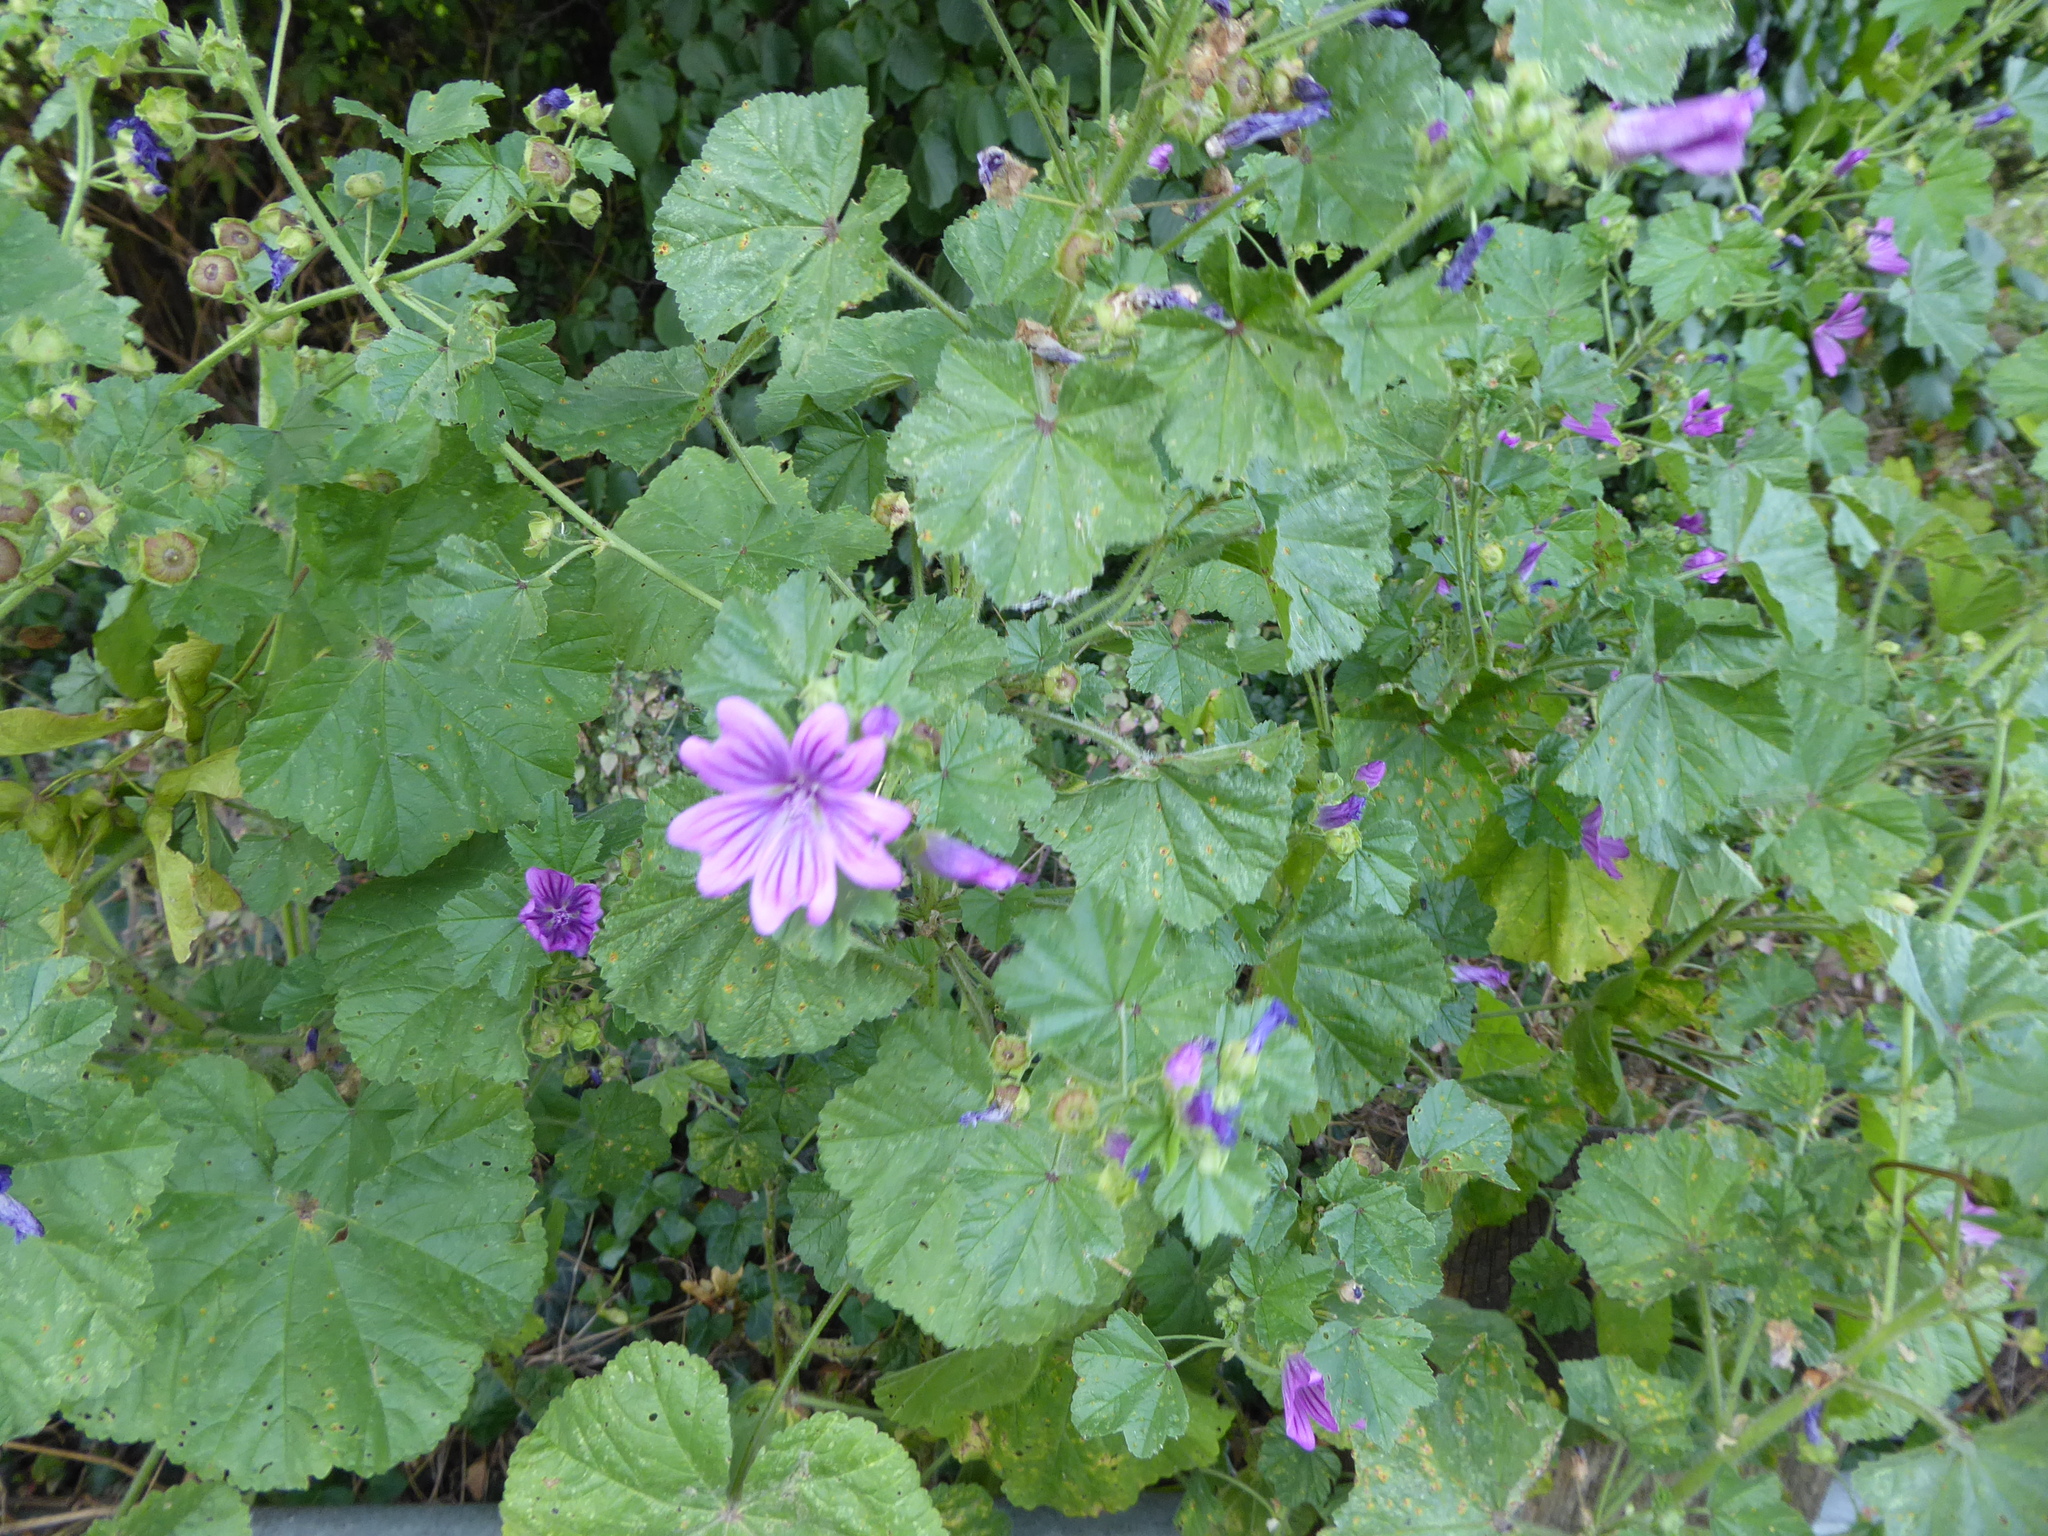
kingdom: Plantae
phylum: Tracheophyta
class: Magnoliopsida
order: Malvales
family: Malvaceae
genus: Malva
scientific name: Malva sylvestris
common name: Common mallow
